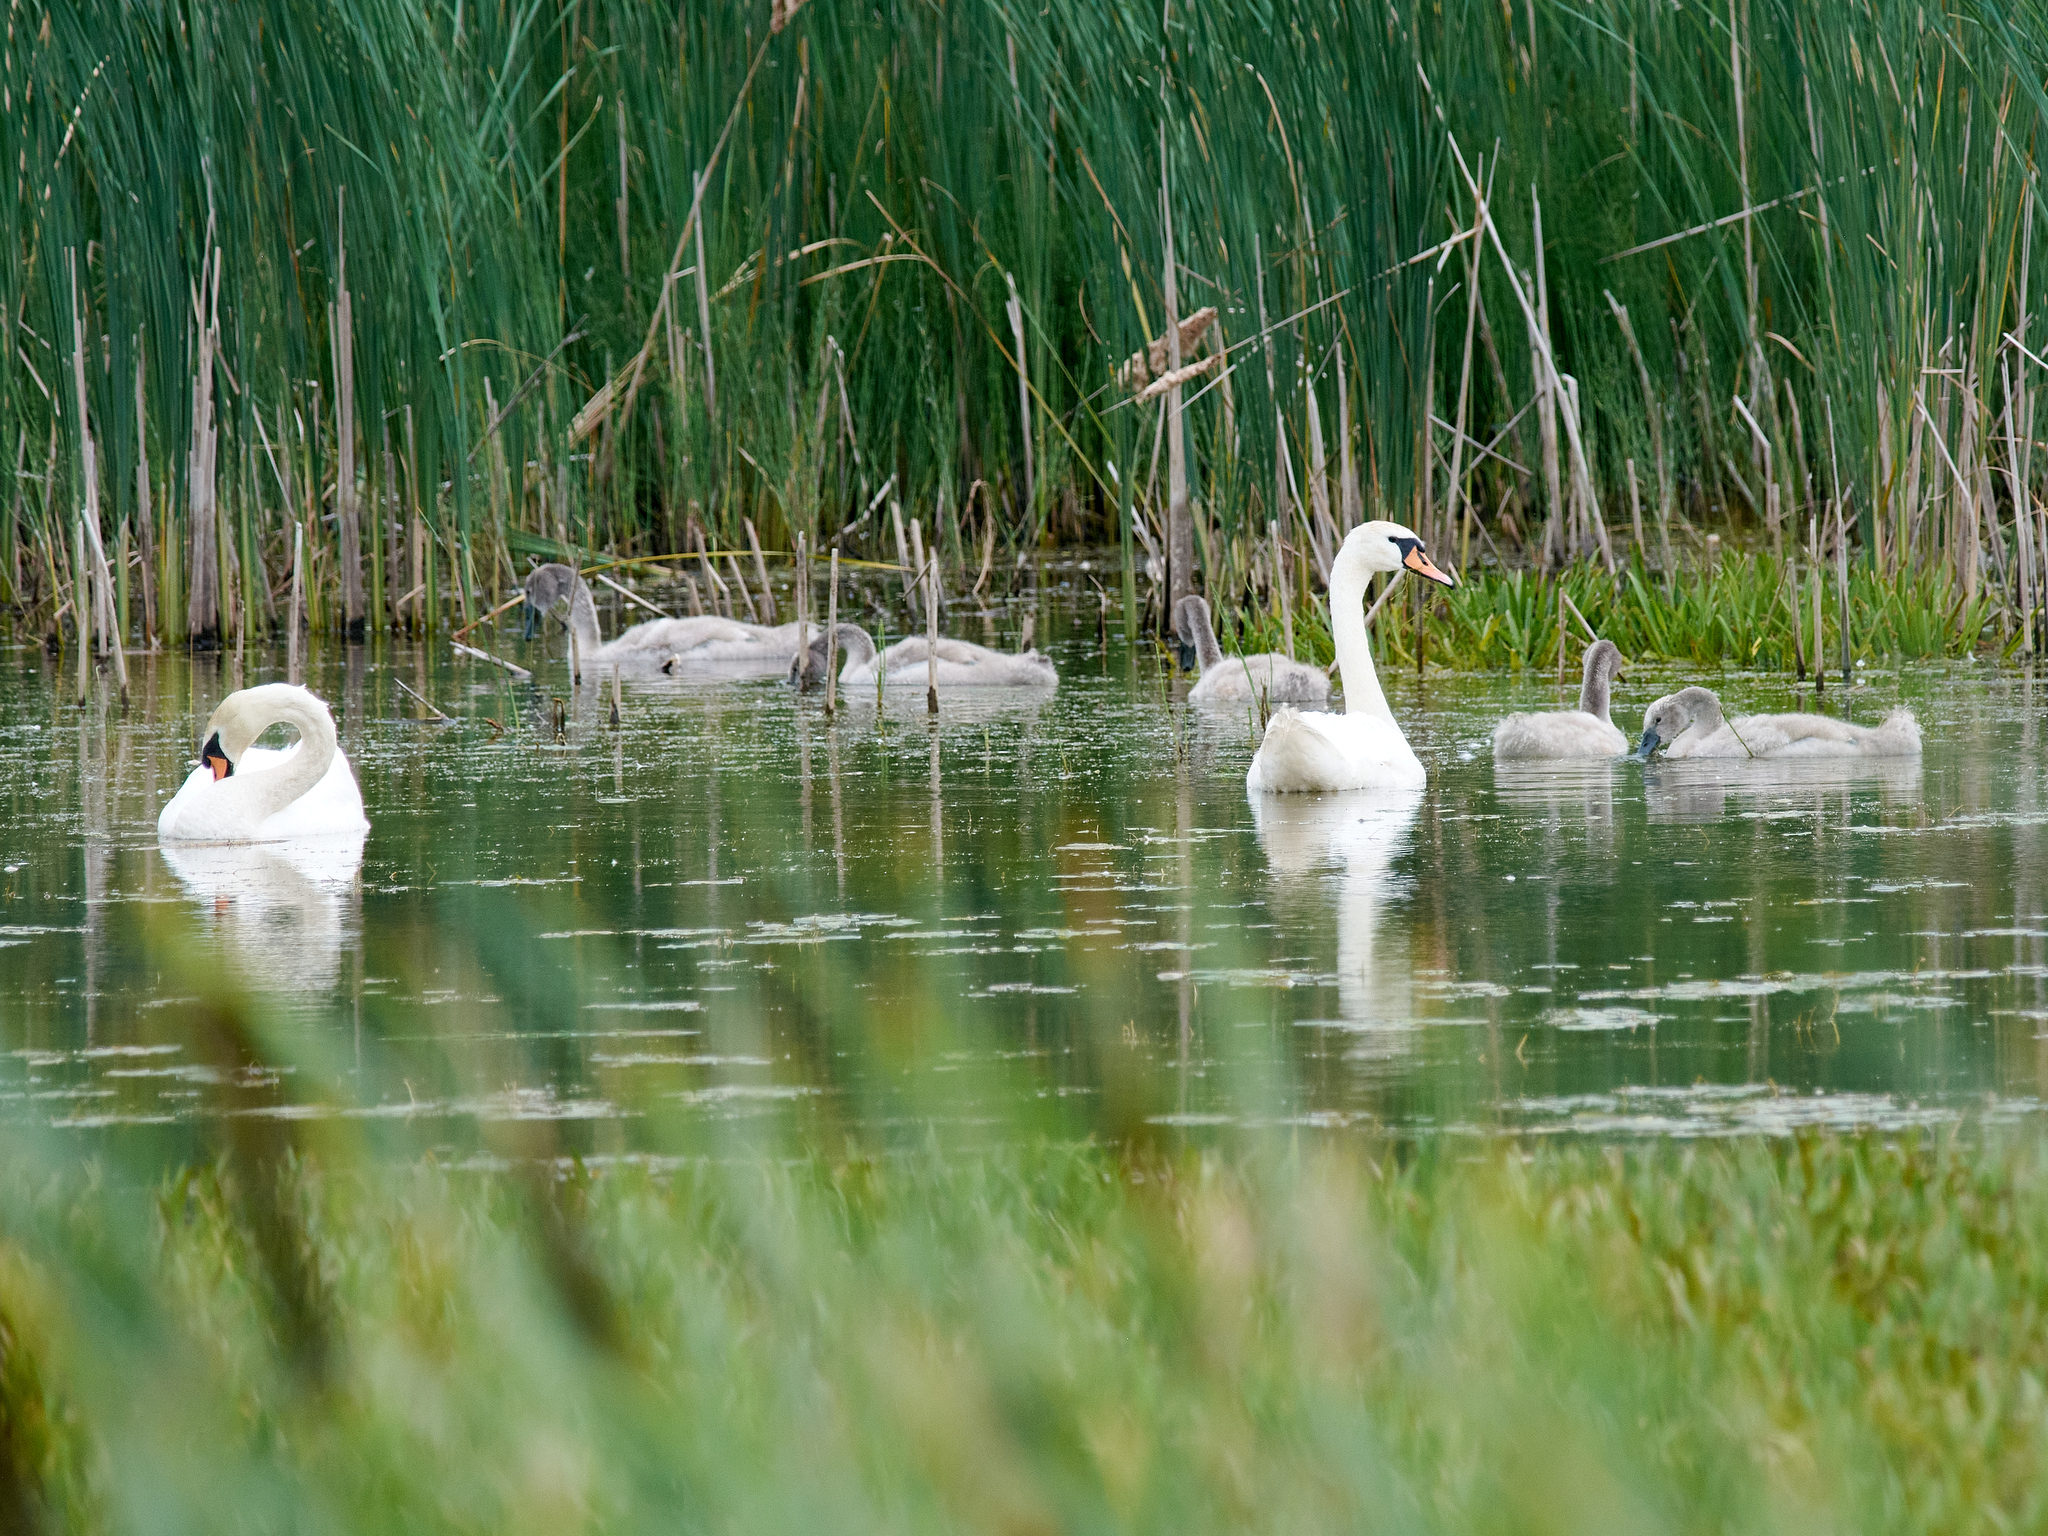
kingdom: Animalia
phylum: Chordata
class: Aves
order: Anseriformes
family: Anatidae
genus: Cygnus
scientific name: Cygnus olor
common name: Mute swan
